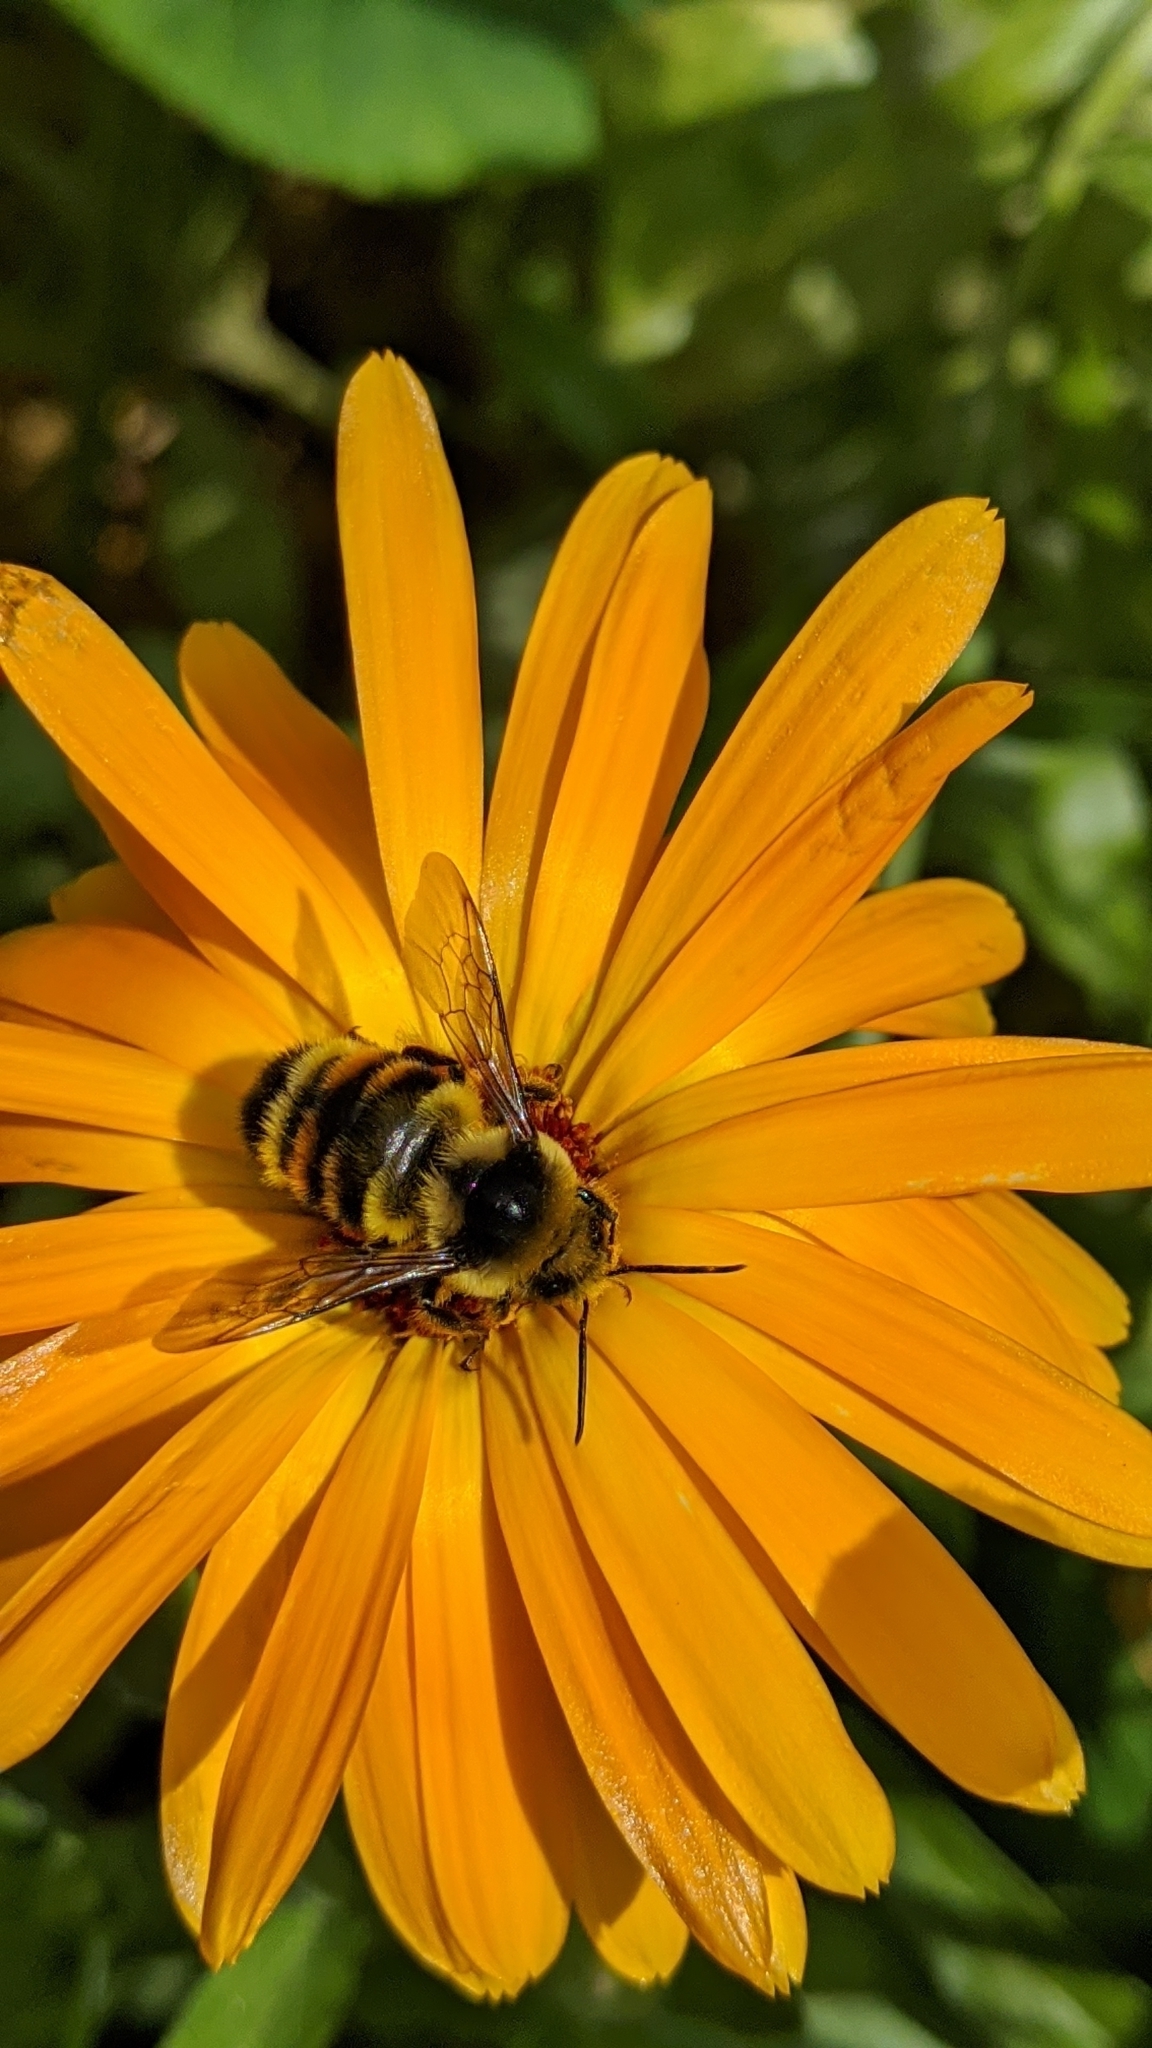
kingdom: Animalia
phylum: Arthropoda
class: Insecta
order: Hymenoptera
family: Apidae
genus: Bombus
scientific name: Bombus vancouverensis
